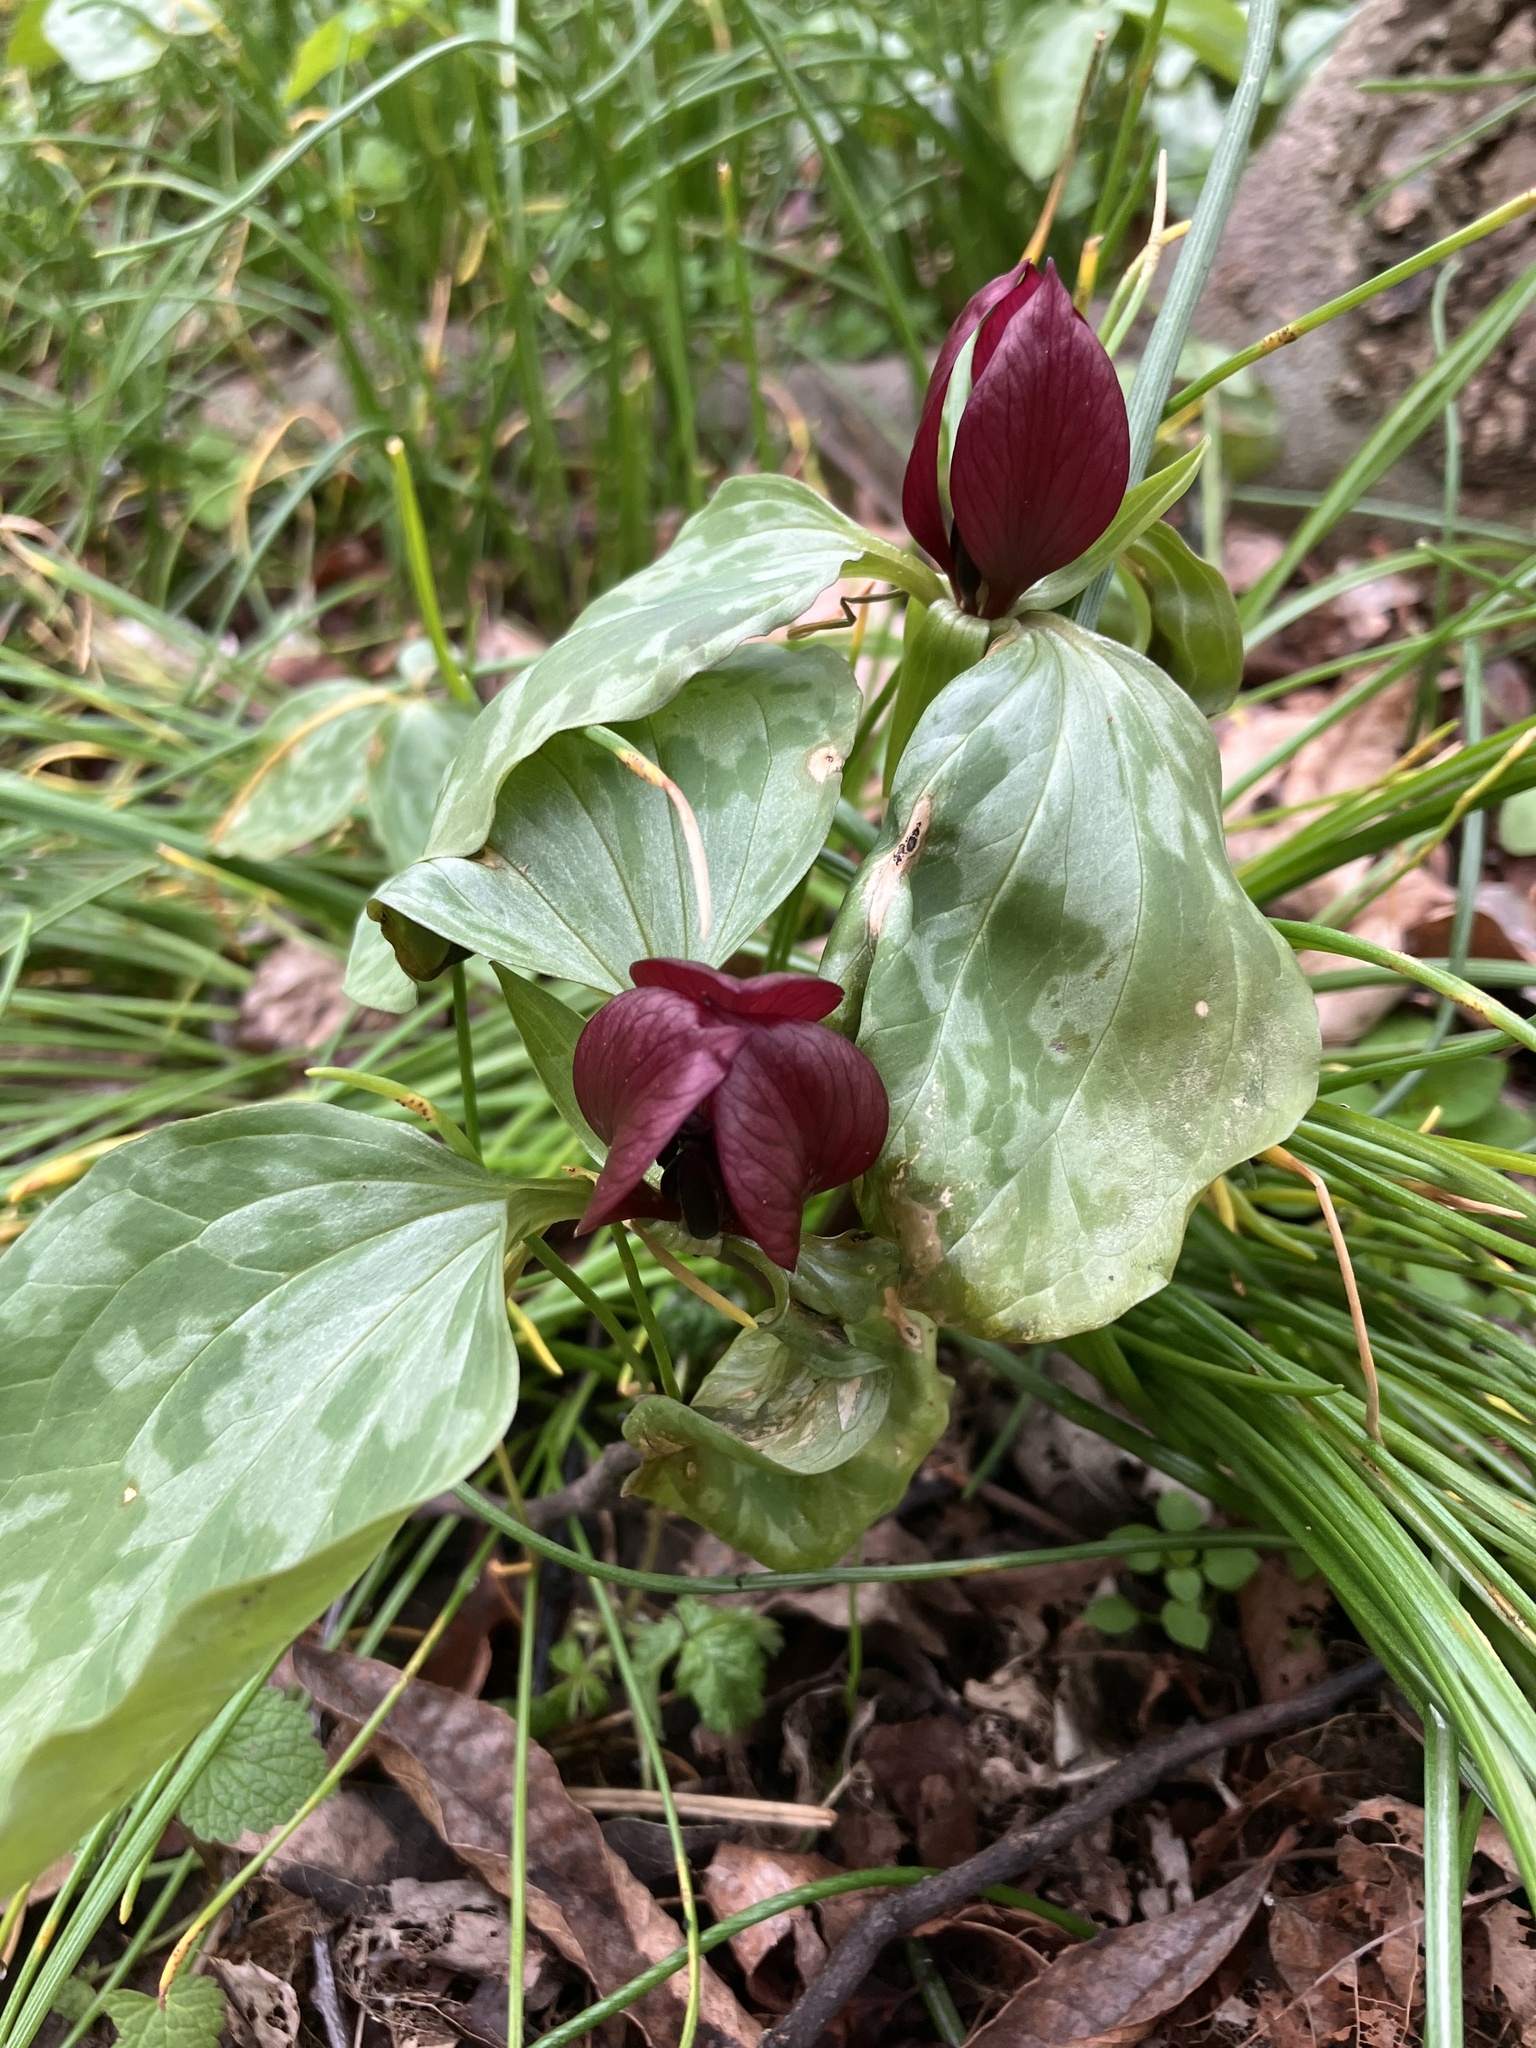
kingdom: Plantae
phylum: Tracheophyta
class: Liliopsida
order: Liliales
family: Melanthiaceae
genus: Trillium
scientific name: Trillium recurvatum
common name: Bloody butcher
